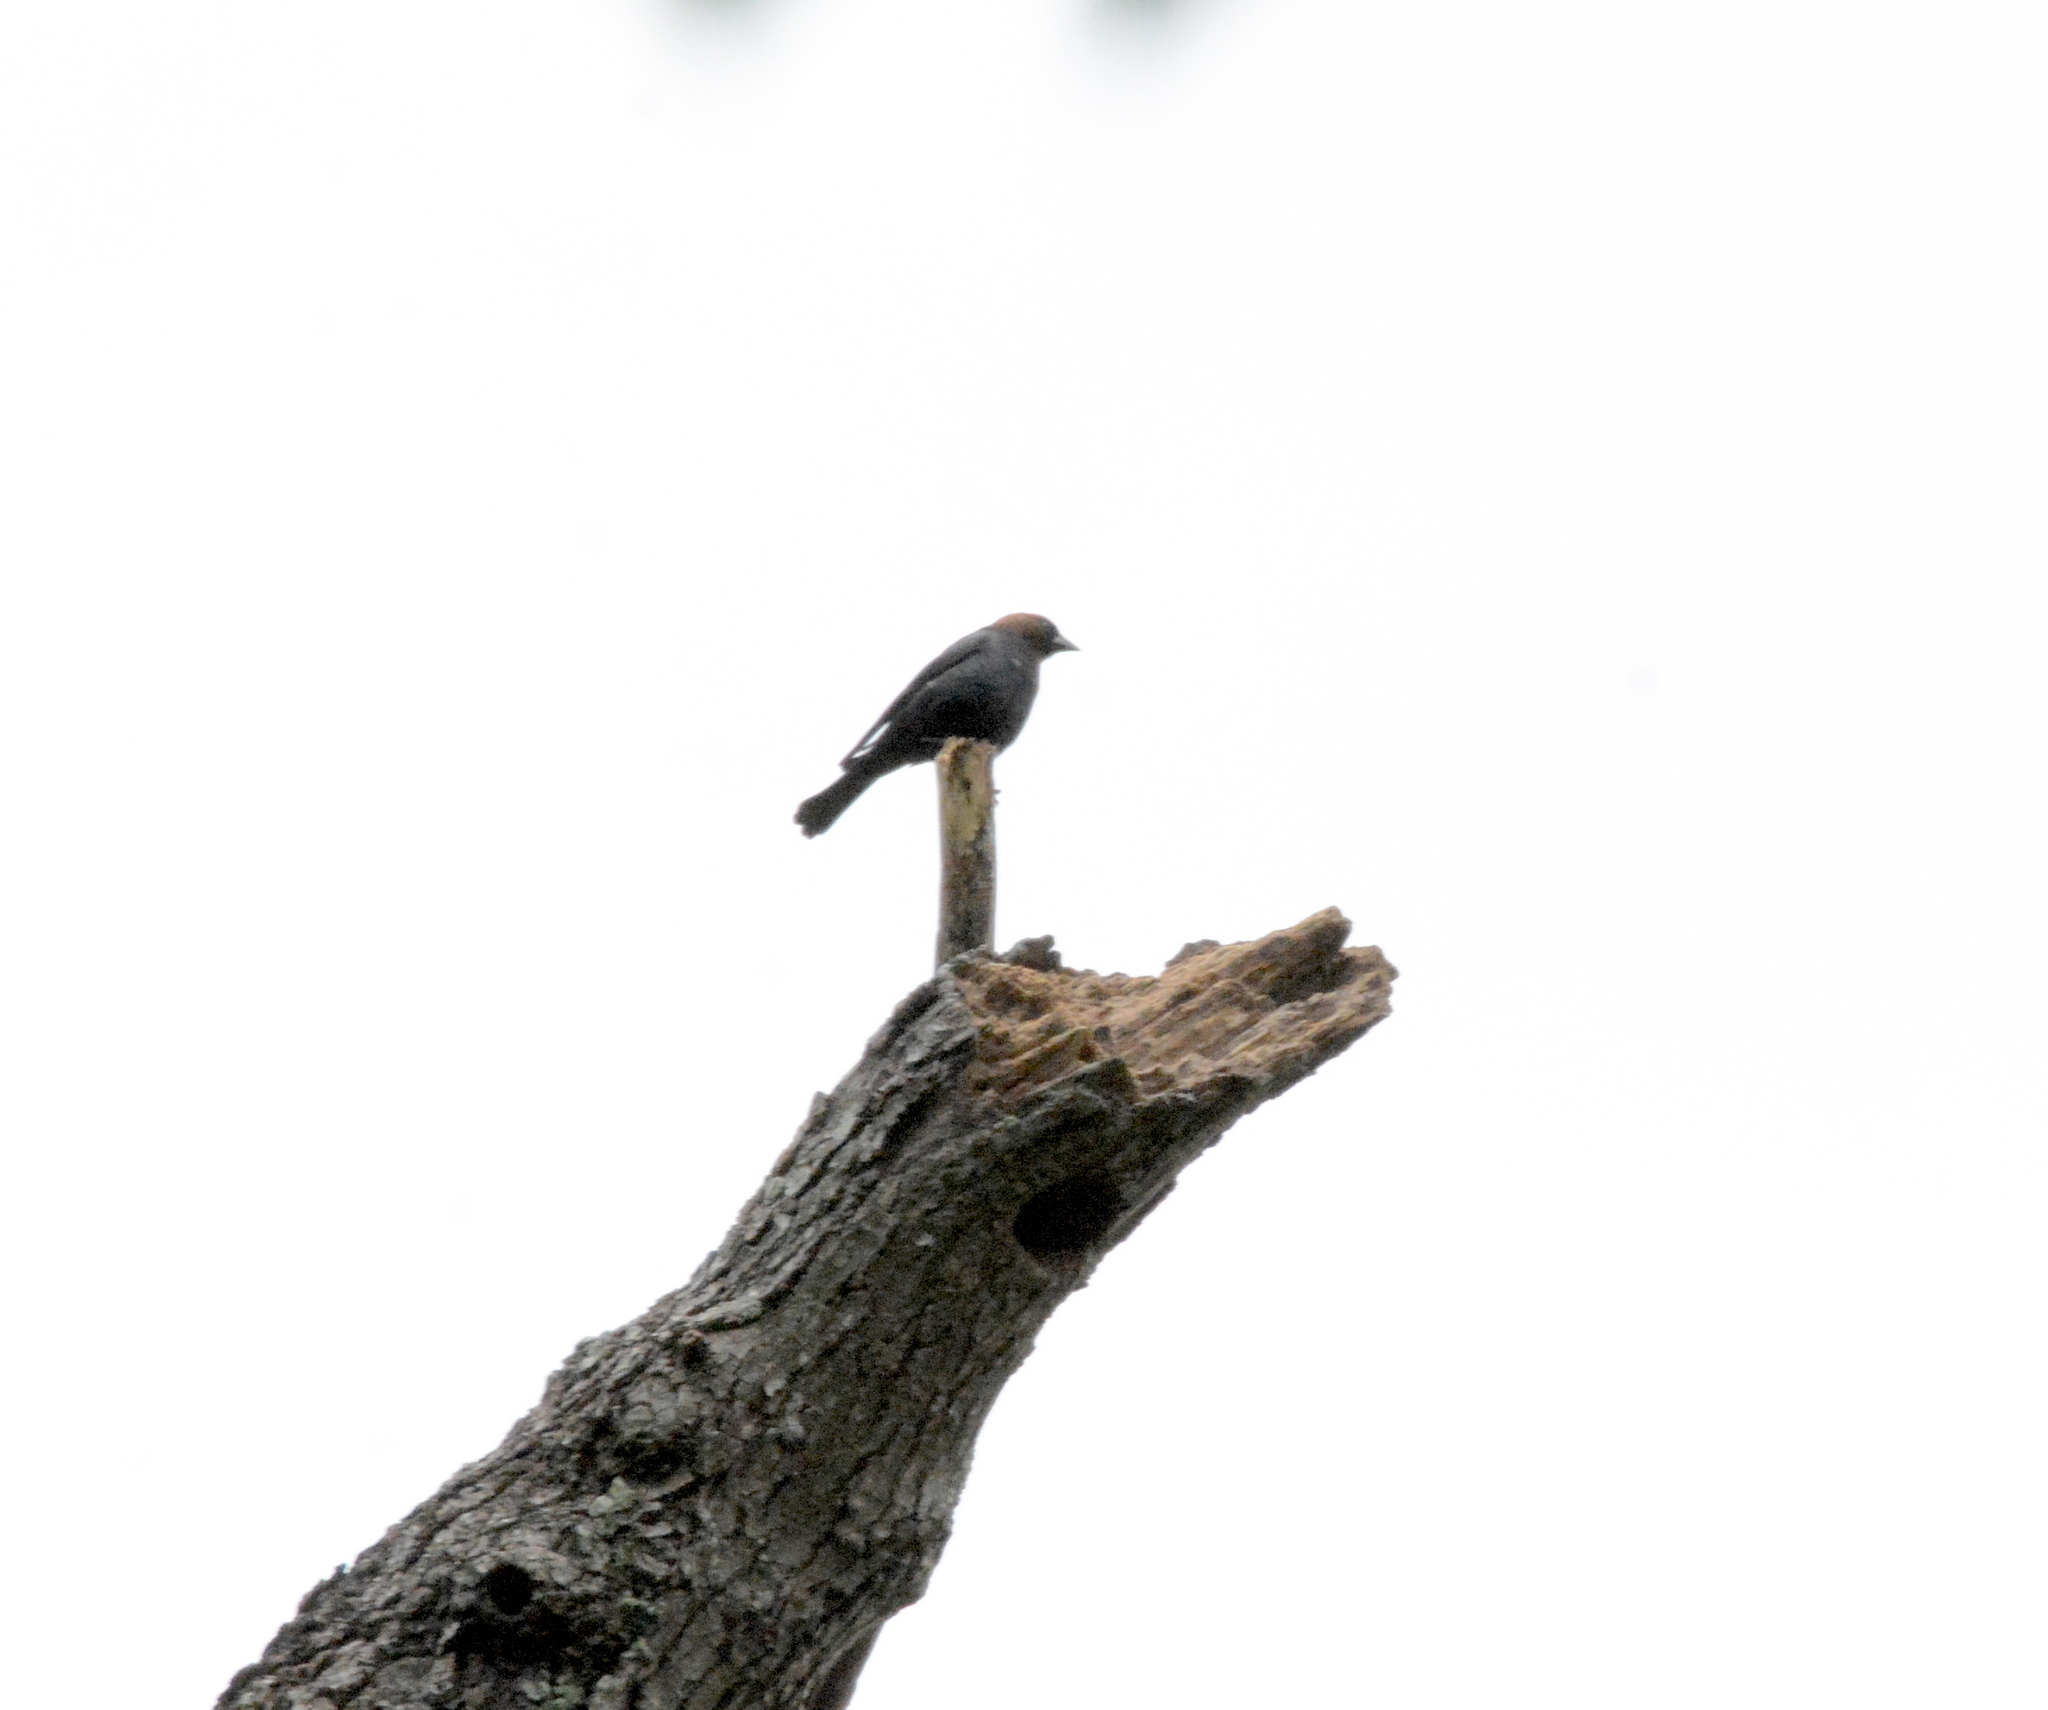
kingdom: Animalia
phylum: Chordata
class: Aves
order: Passeriformes
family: Icteridae
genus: Molothrus
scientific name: Molothrus ater
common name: Brown-headed cowbird
